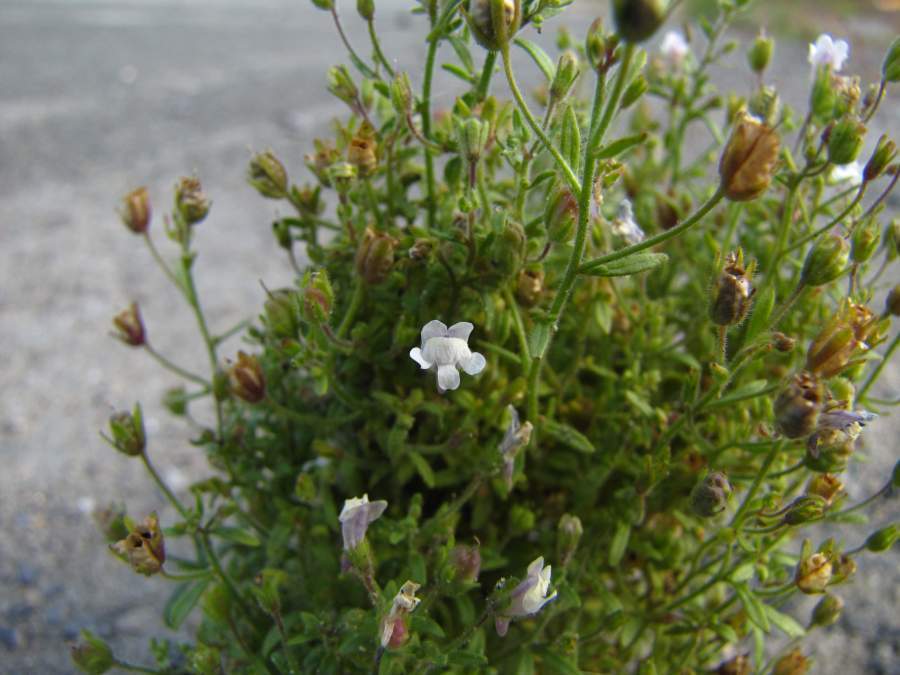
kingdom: Plantae
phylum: Tracheophyta
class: Magnoliopsida
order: Lamiales
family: Plantaginaceae
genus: Chaenorhinum
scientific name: Chaenorhinum minus
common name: Dwarf snapdragon
